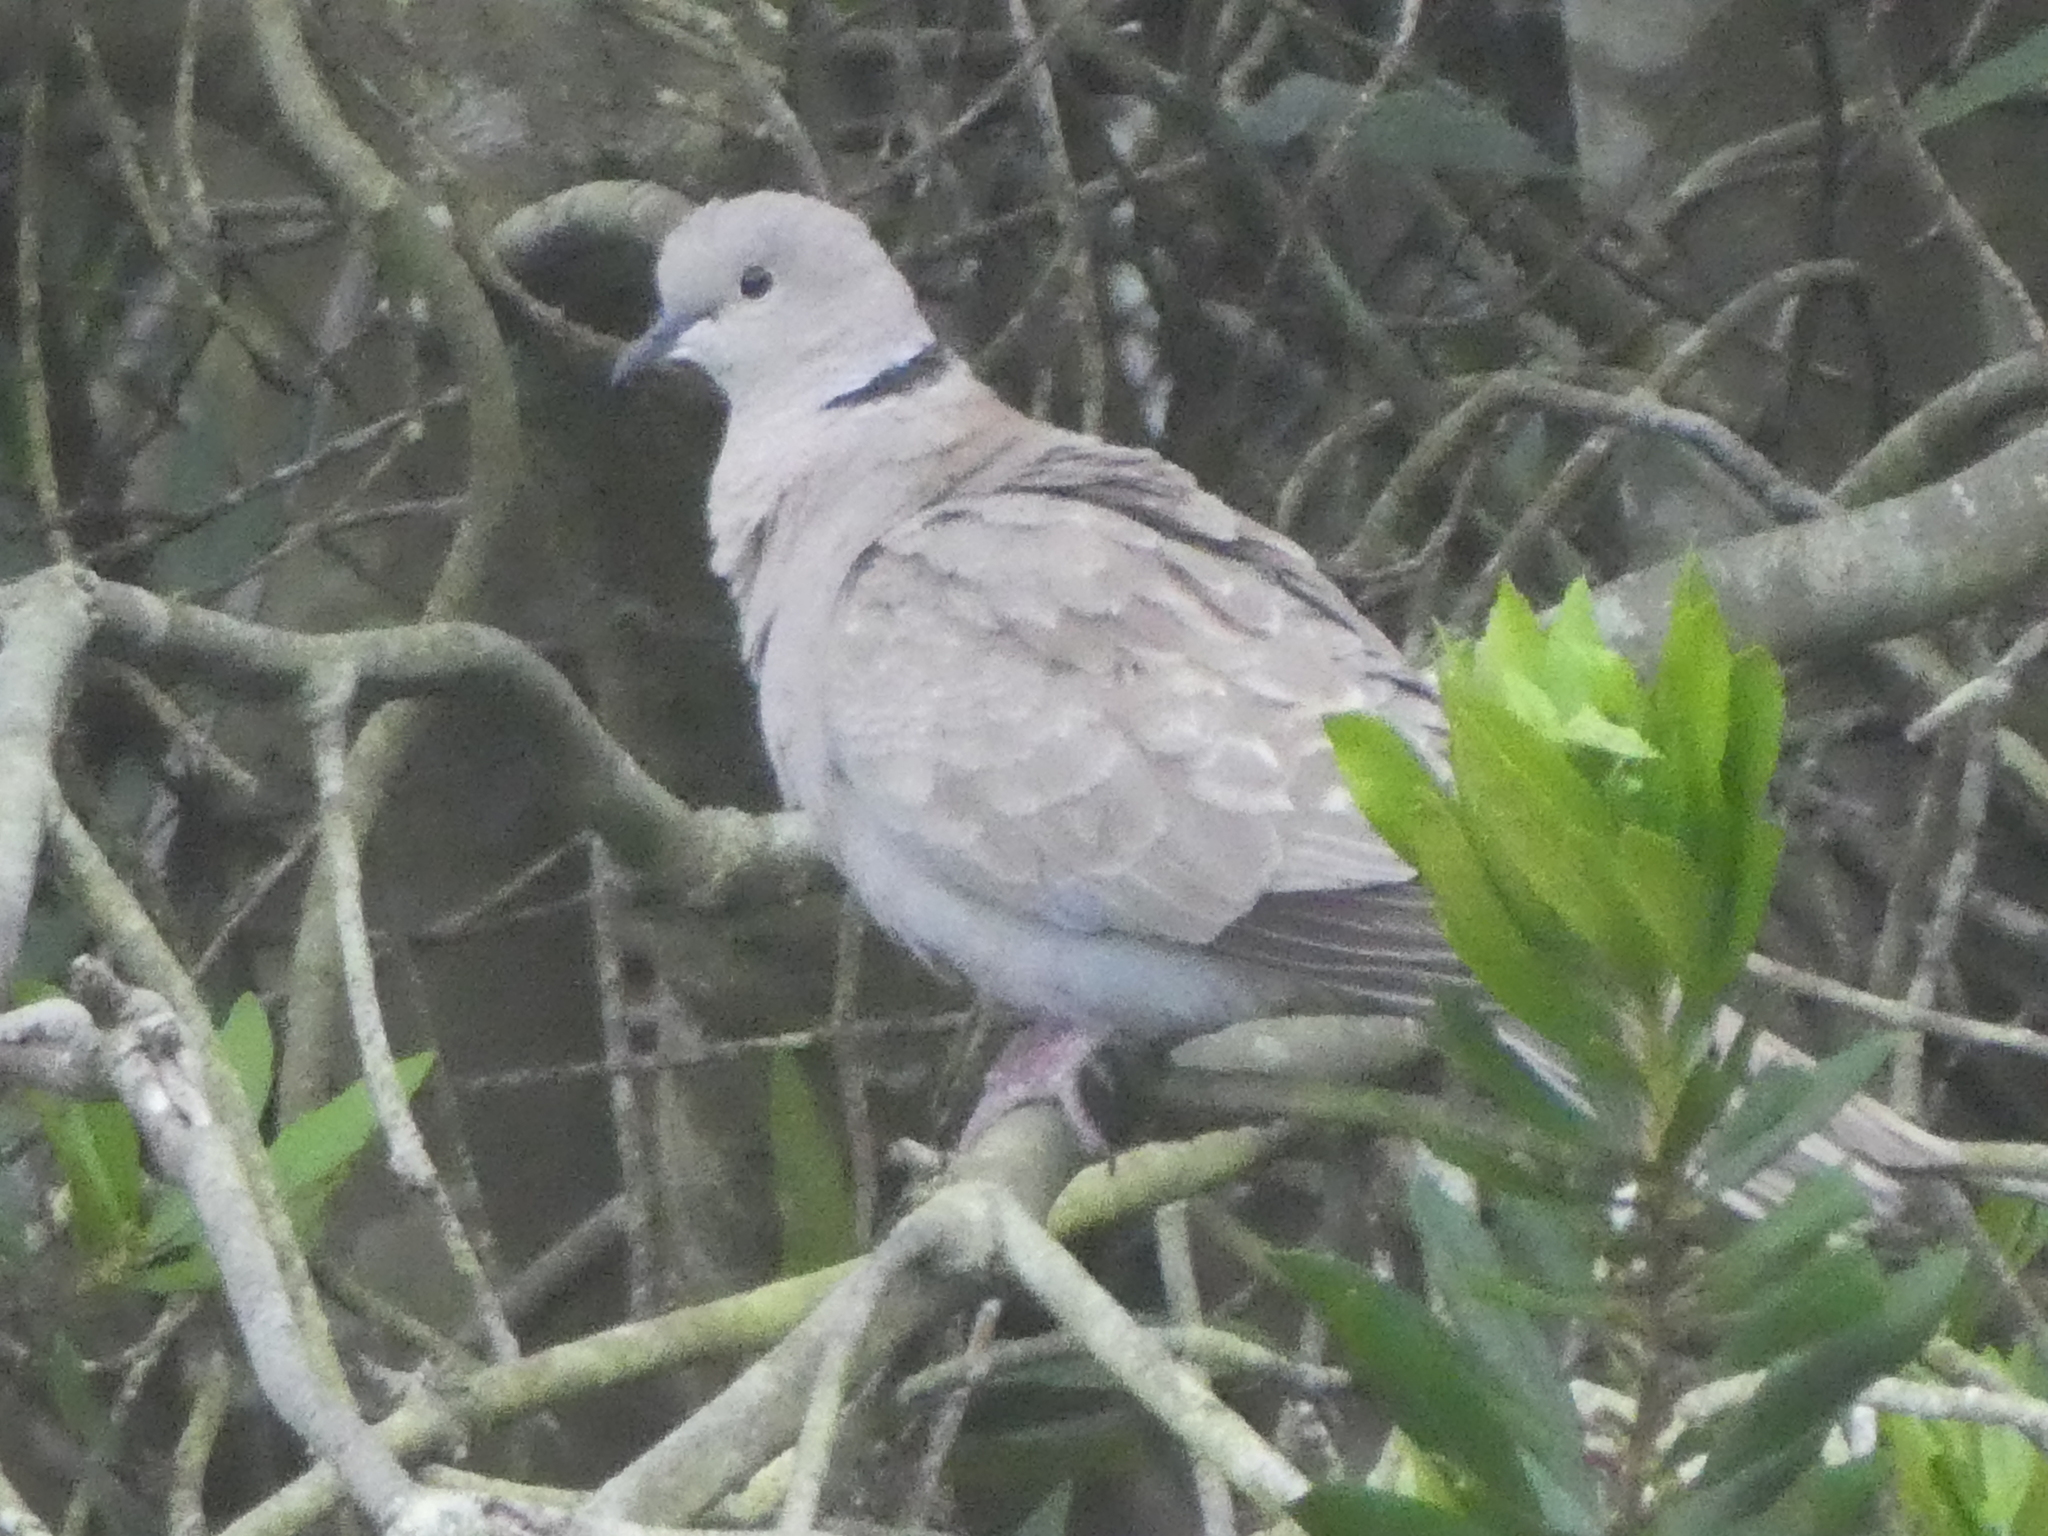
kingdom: Animalia
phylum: Chordata
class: Aves
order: Columbiformes
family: Columbidae
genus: Streptopelia
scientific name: Streptopelia decaocto
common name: Eurasian collared dove
